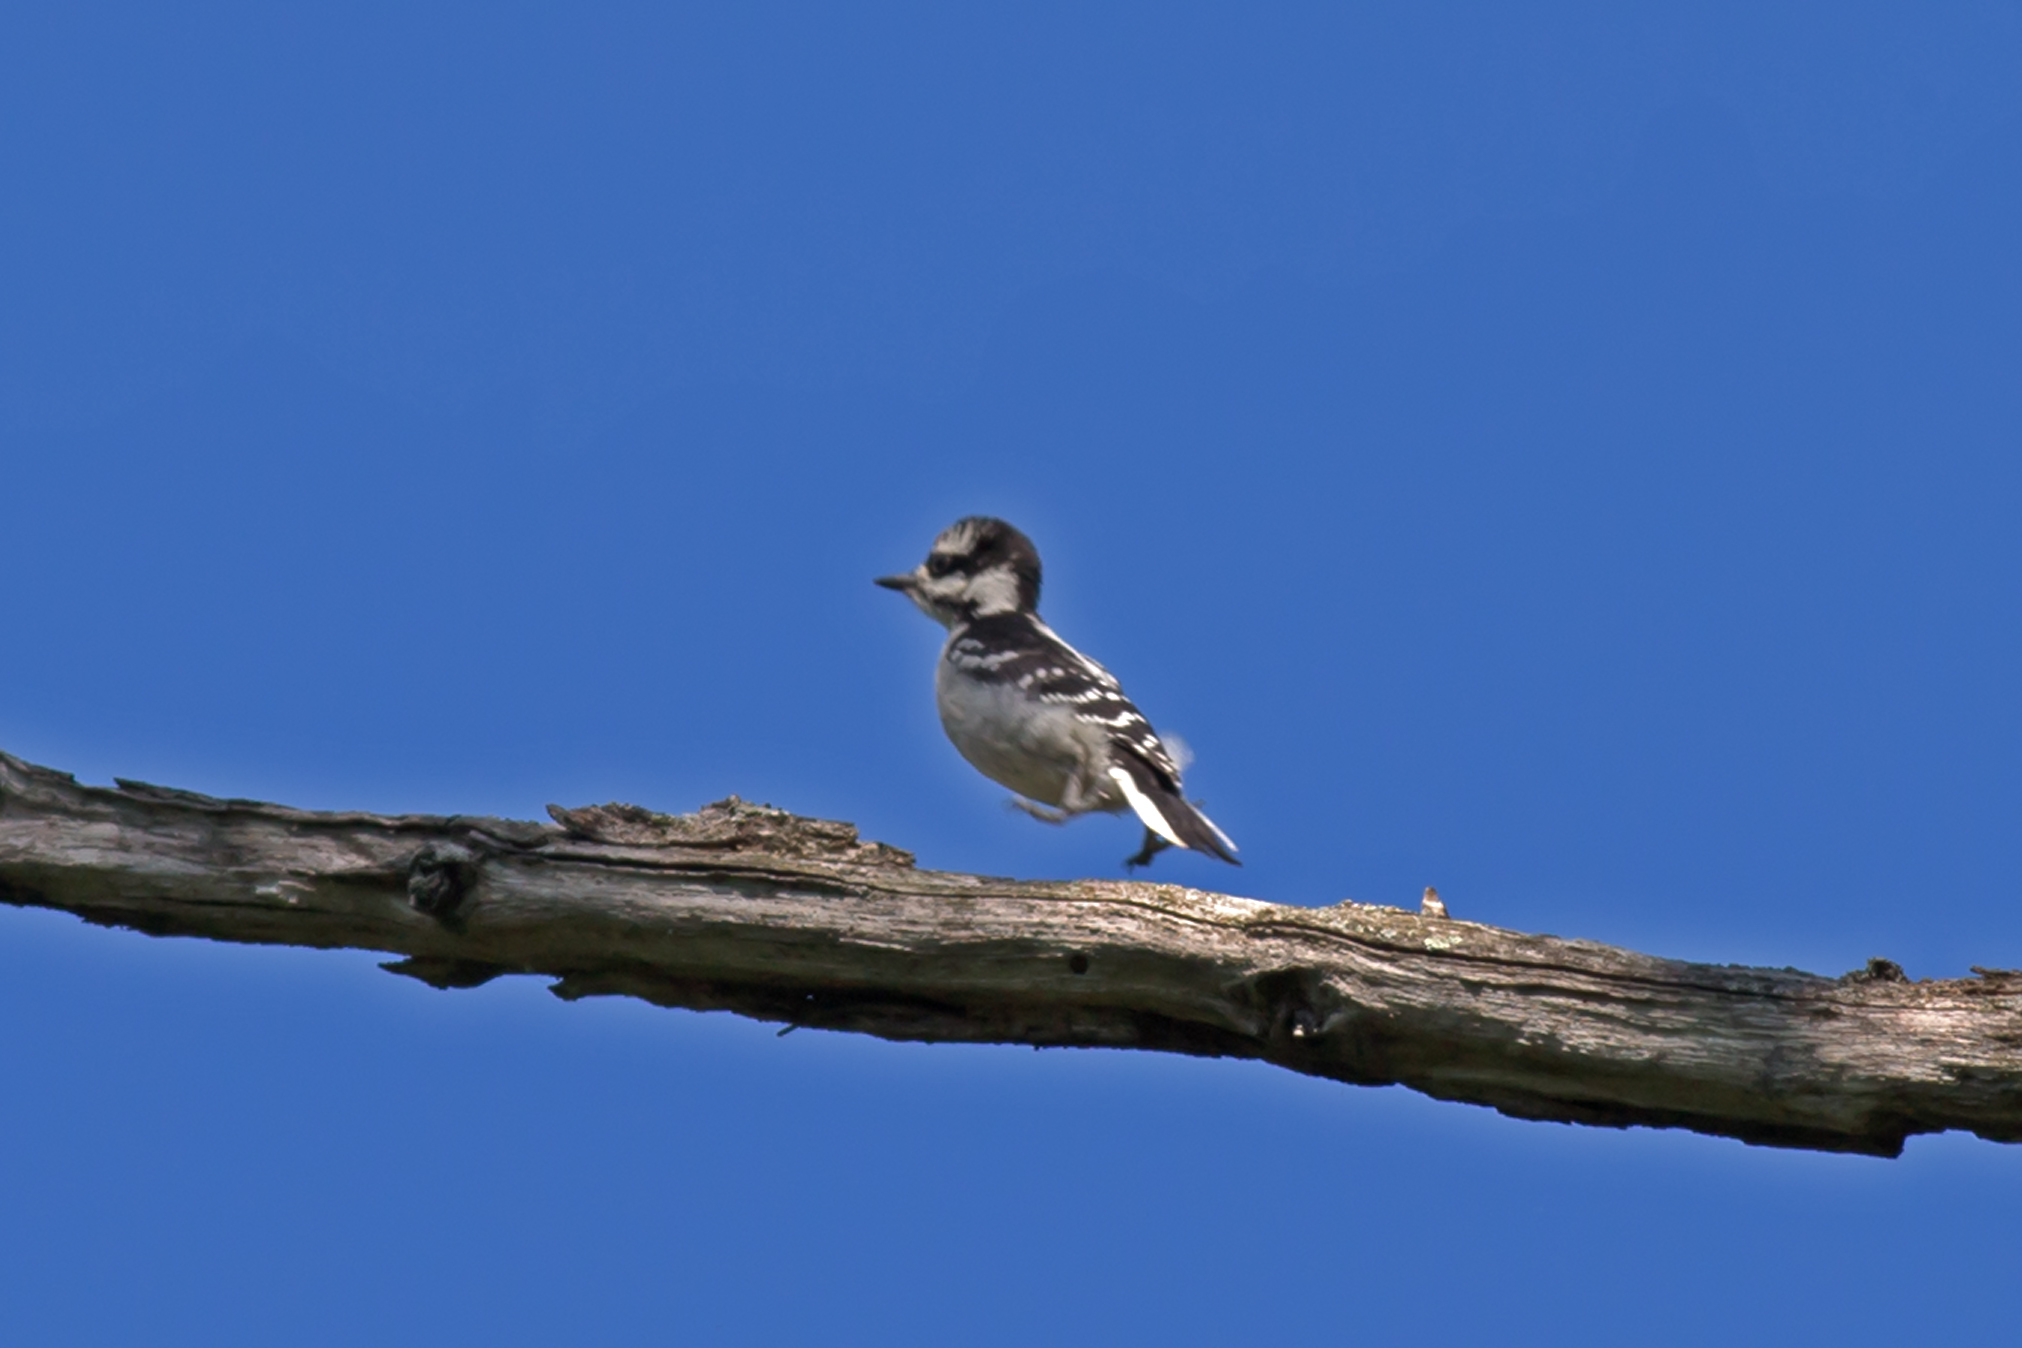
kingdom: Animalia
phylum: Chordata
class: Aves
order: Piciformes
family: Picidae
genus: Dryobates
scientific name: Dryobates pubescens
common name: Downy woodpecker
